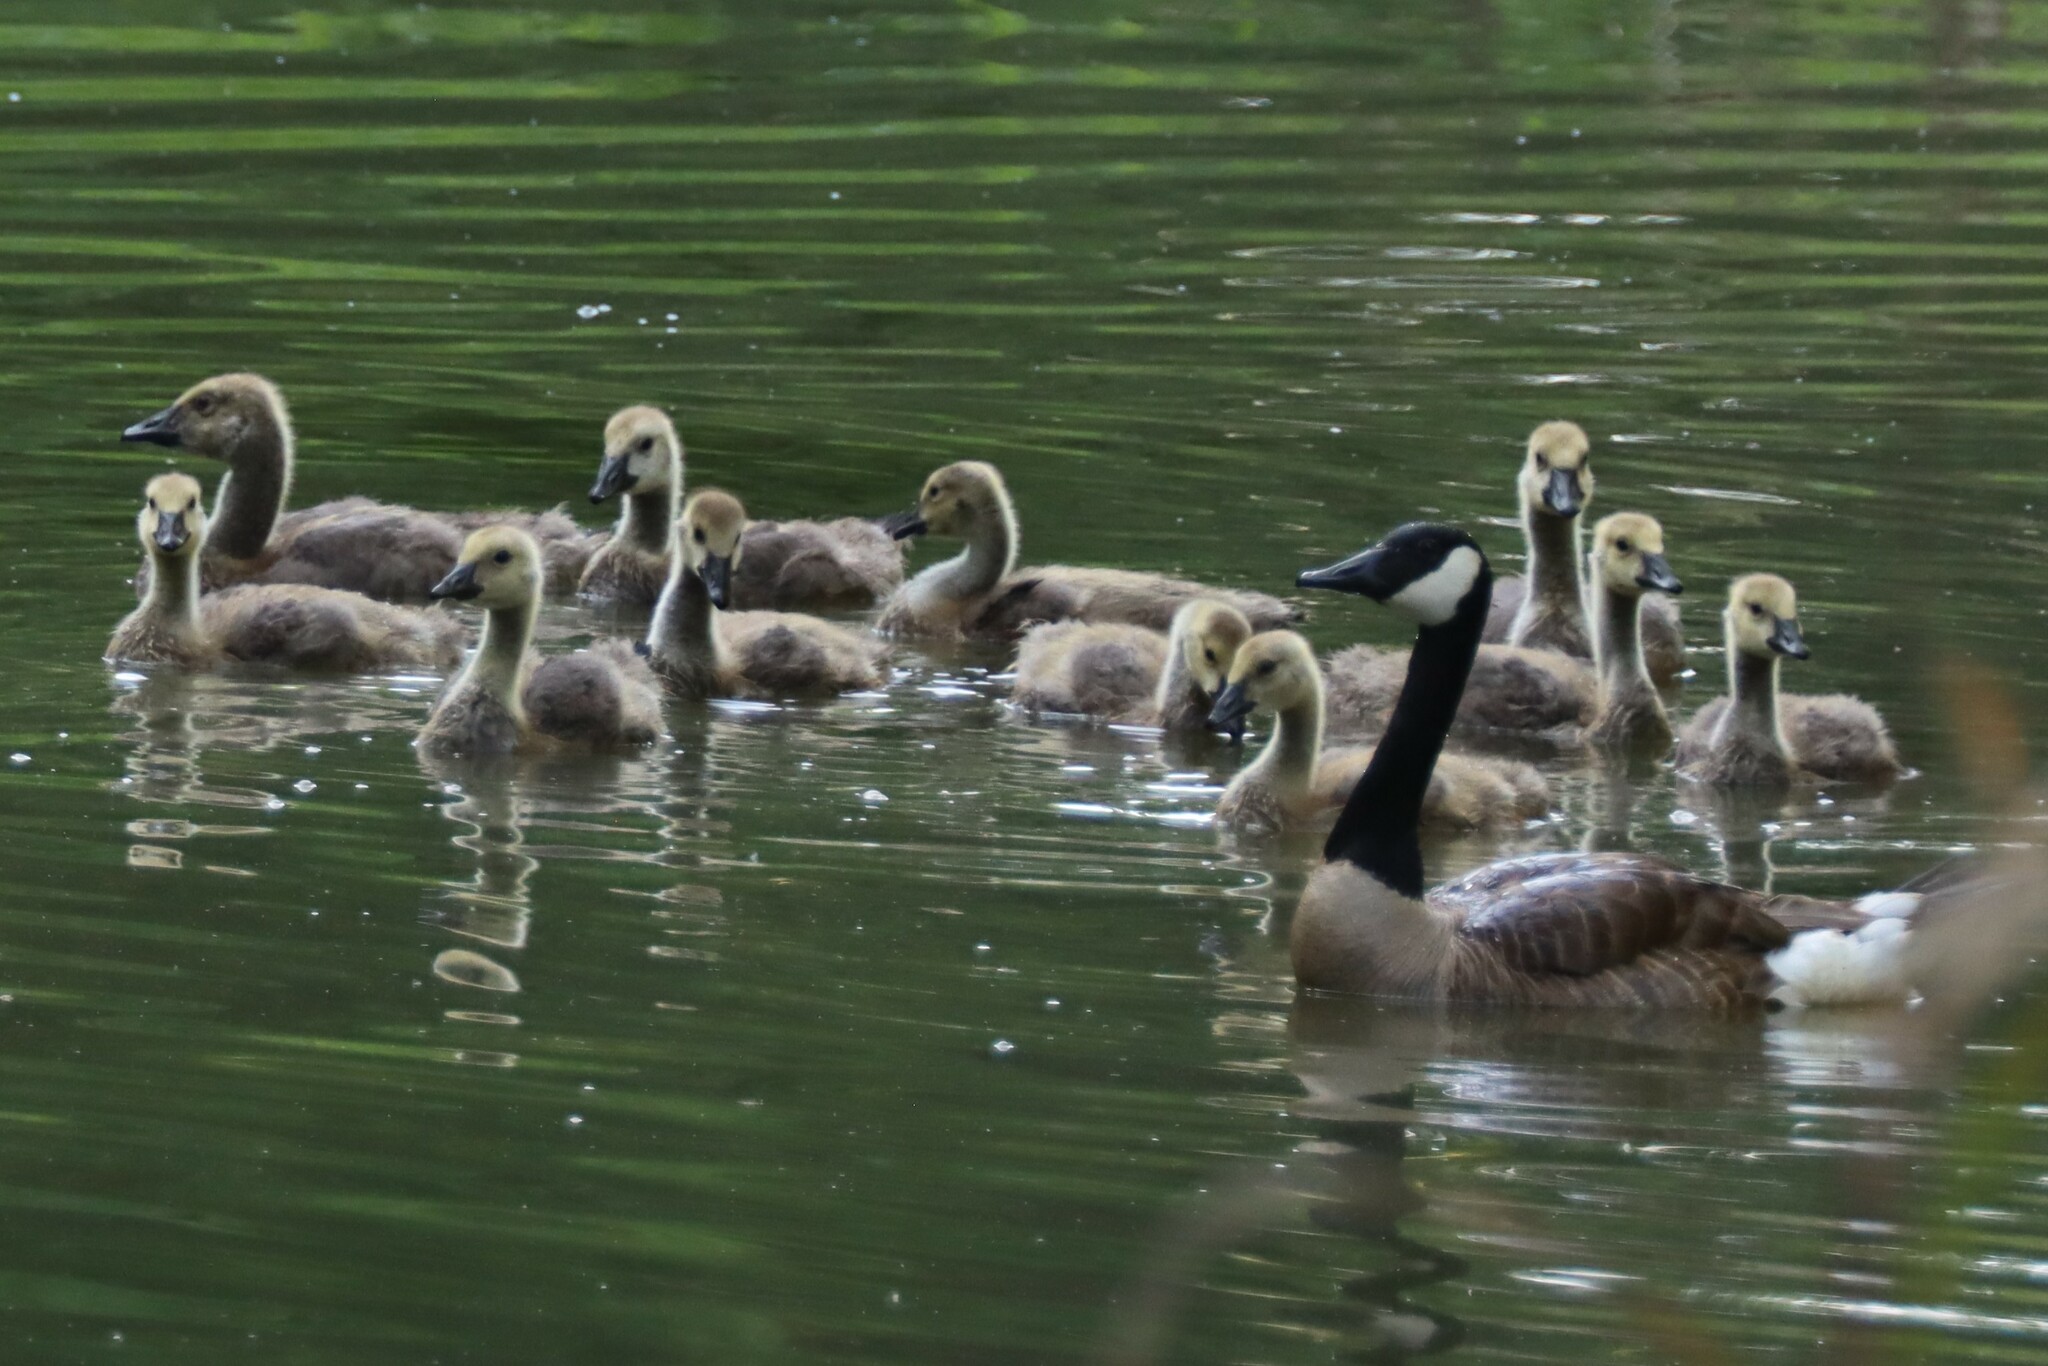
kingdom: Animalia
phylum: Chordata
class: Aves
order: Anseriformes
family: Anatidae
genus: Branta
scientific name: Branta canadensis
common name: Canada goose
